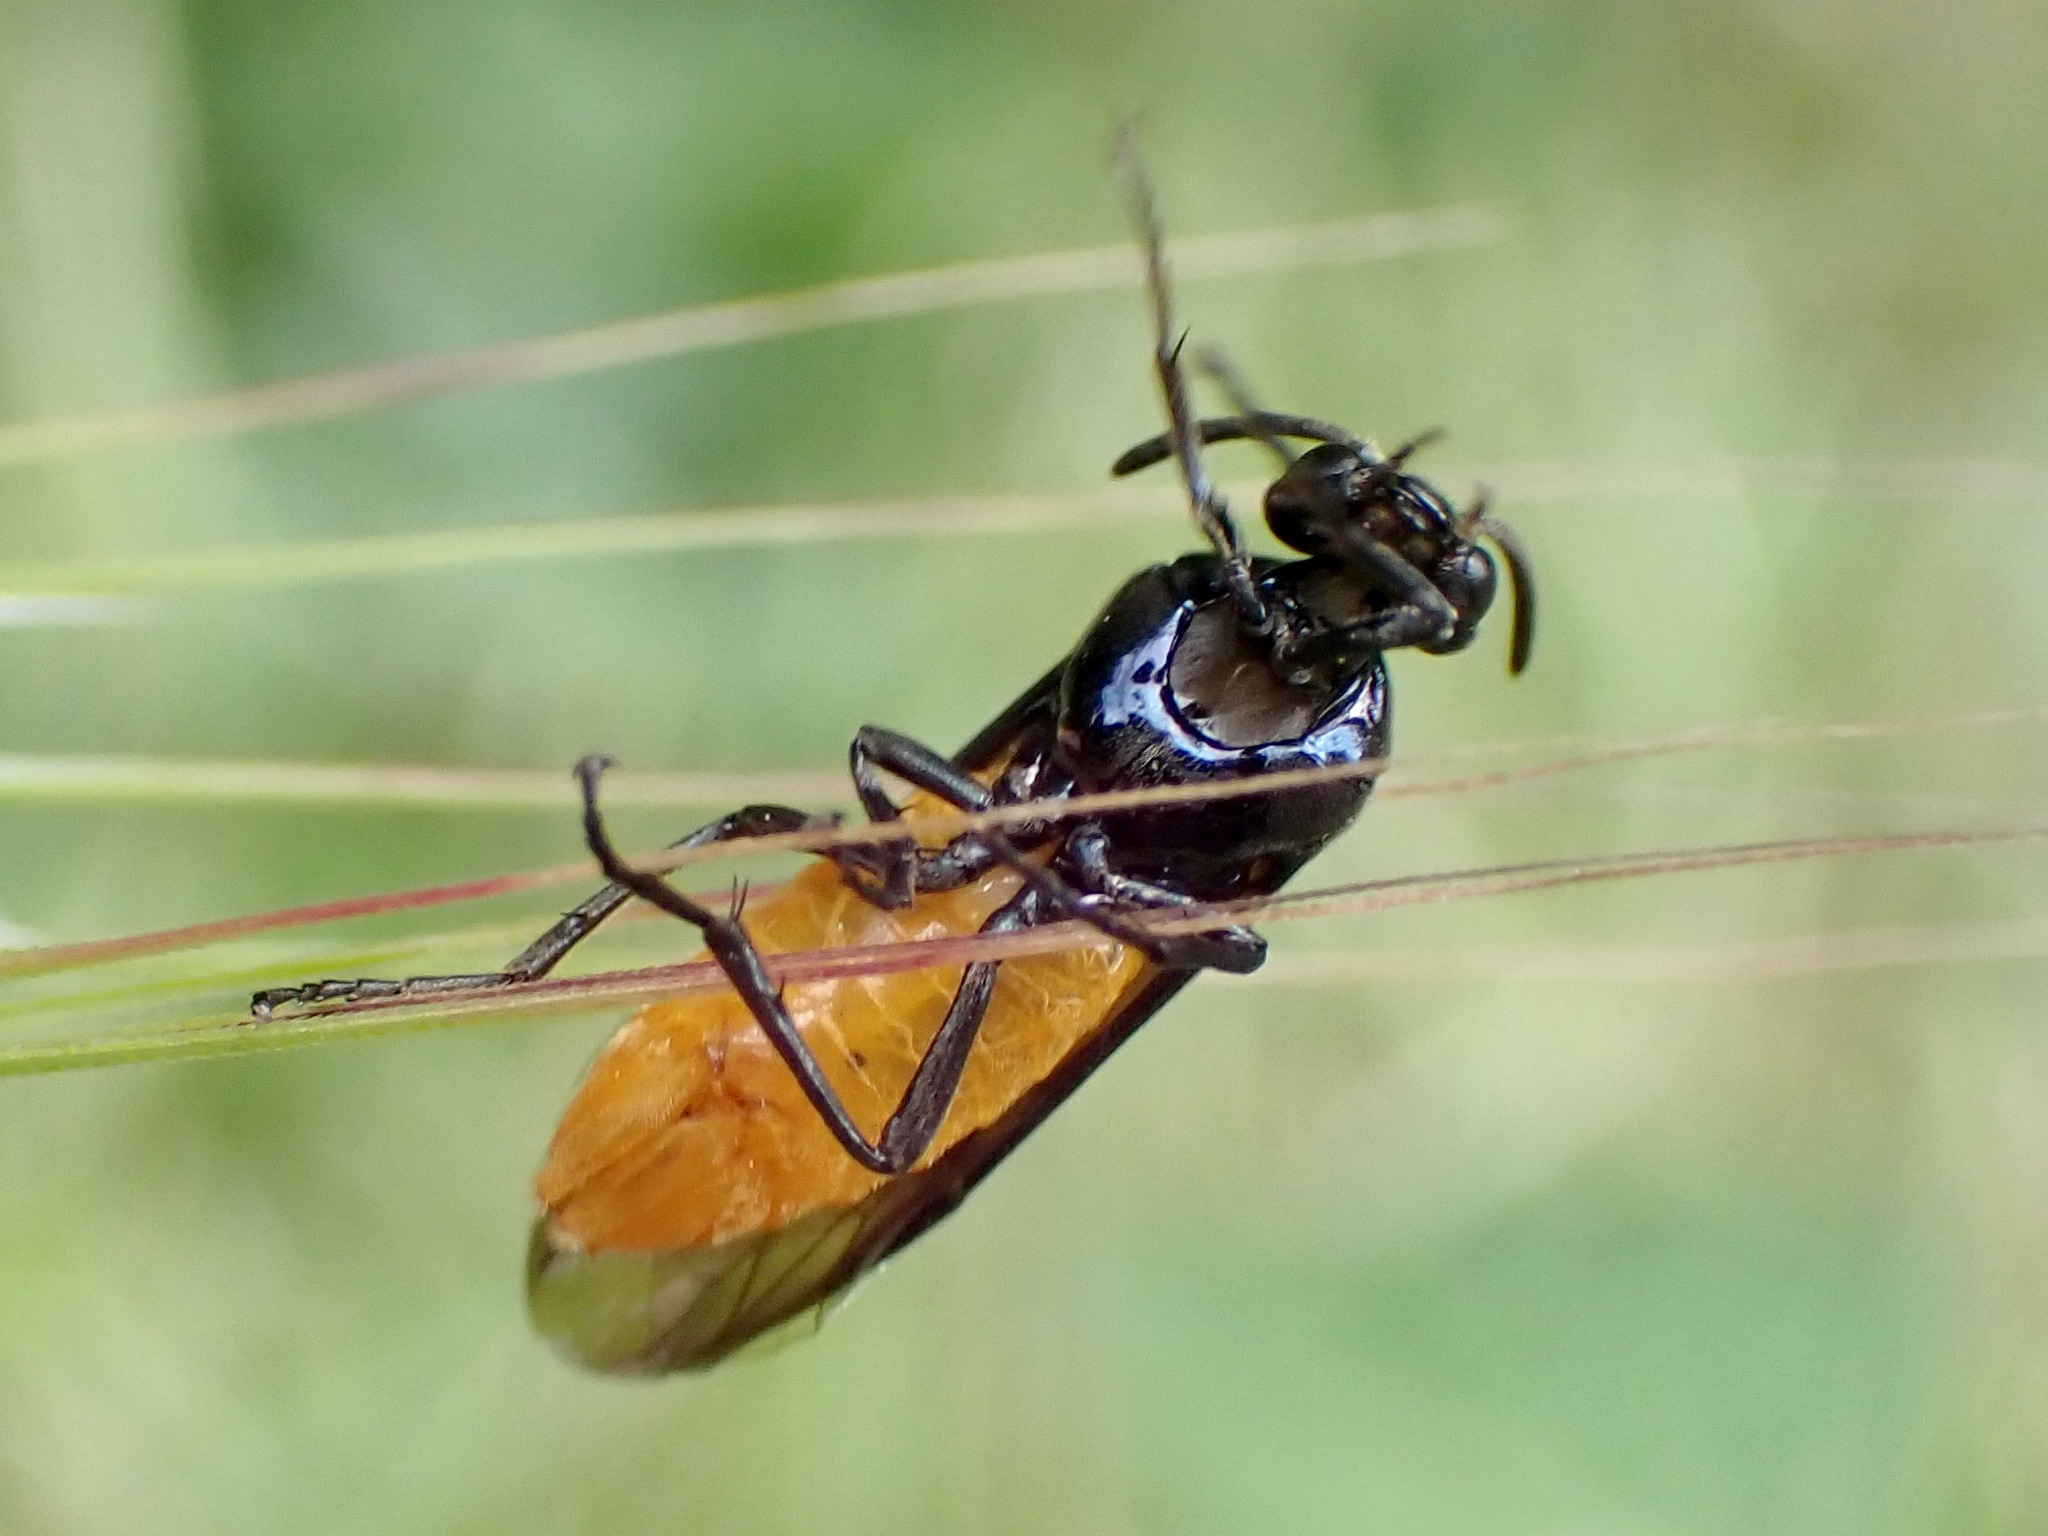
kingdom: Animalia
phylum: Arthropoda
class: Insecta
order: Hymenoptera
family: Argidae
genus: Arge
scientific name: Arge pagana
